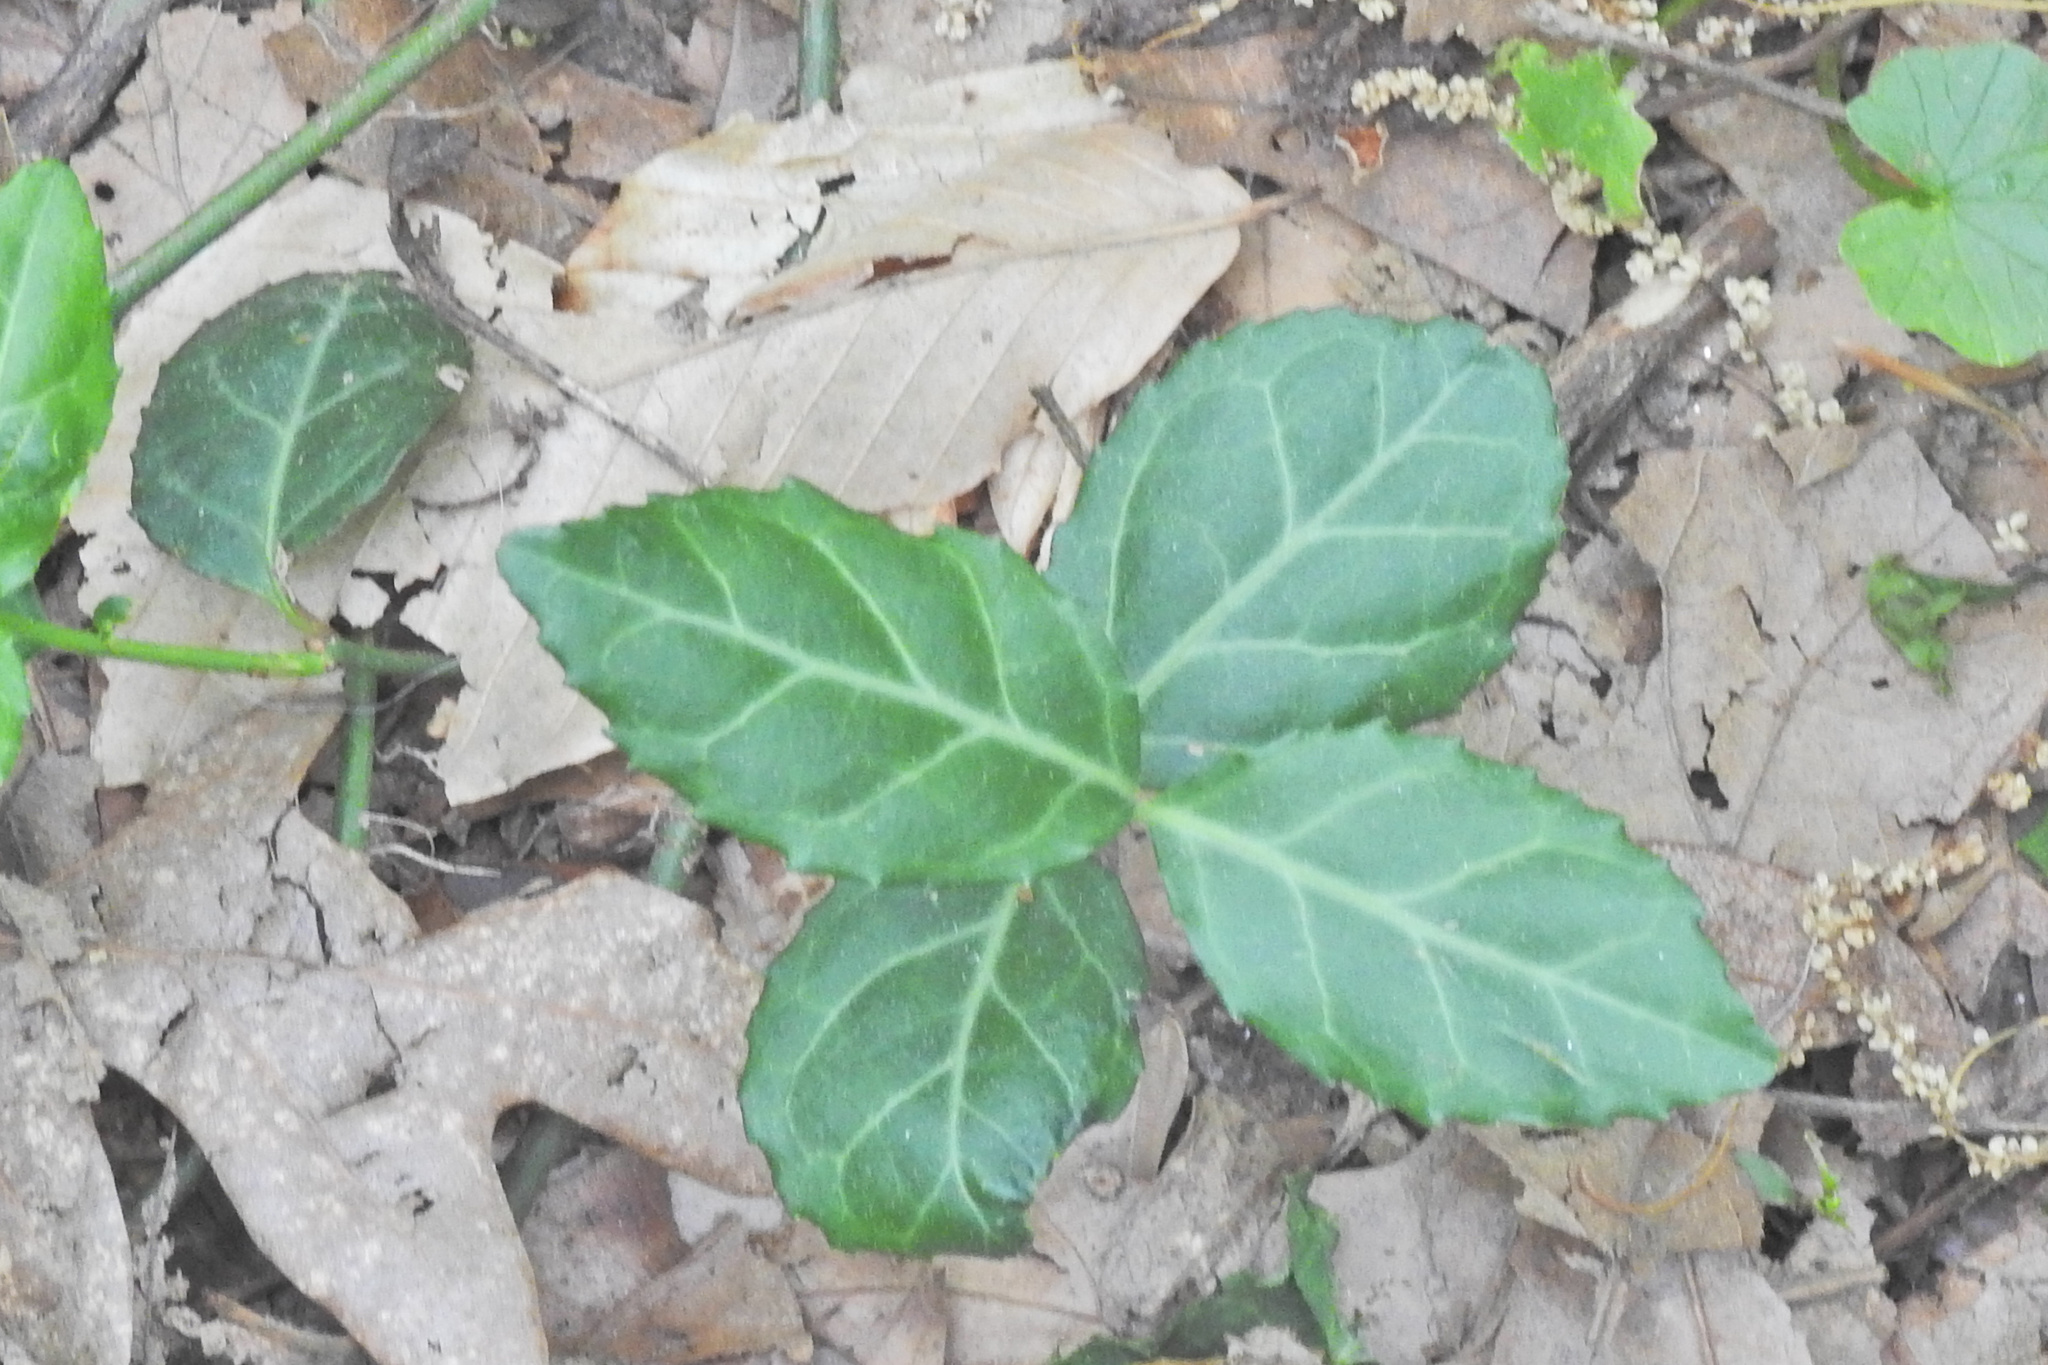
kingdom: Plantae
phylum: Tracheophyta
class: Magnoliopsida
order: Celastrales
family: Celastraceae
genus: Euonymus
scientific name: Euonymus fortunei
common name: Climbing euonymus
